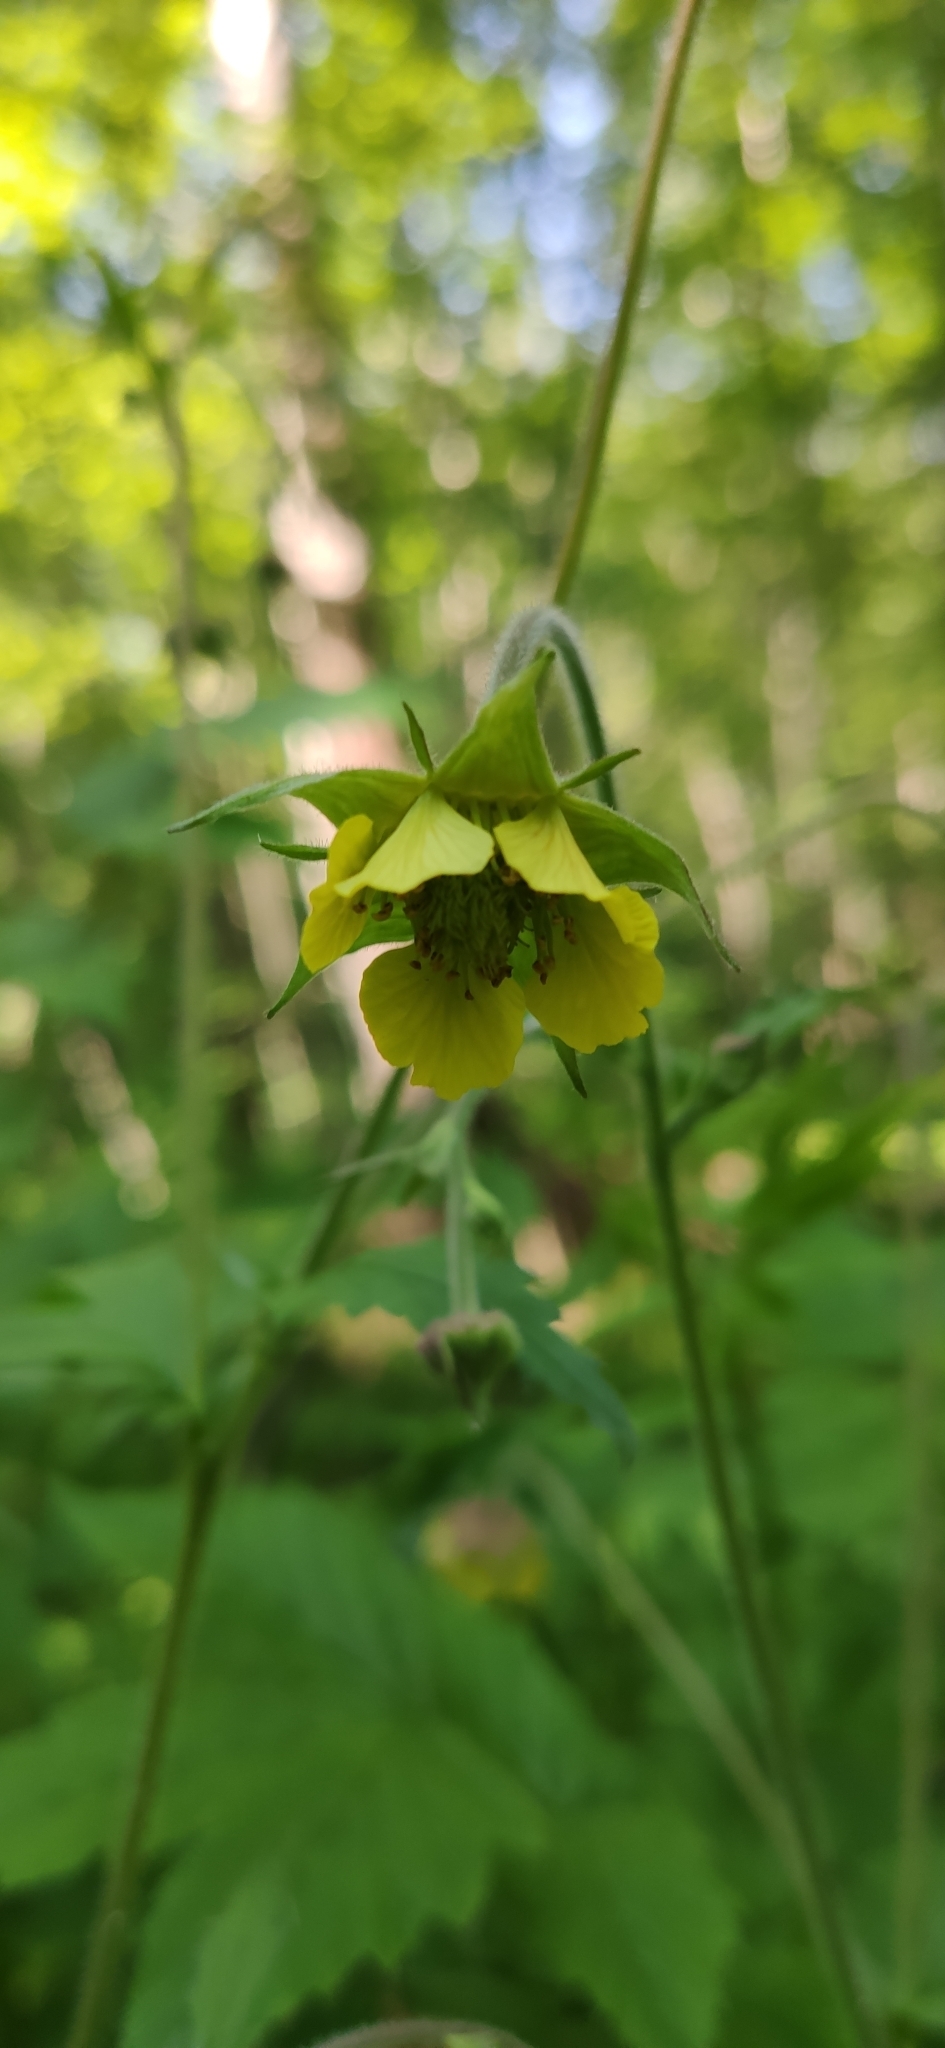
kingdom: Plantae
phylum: Tracheophyta
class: Magnoliopsida
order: Rosales
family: Rosaceae
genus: Geum
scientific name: Geum rivale
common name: Water avens
